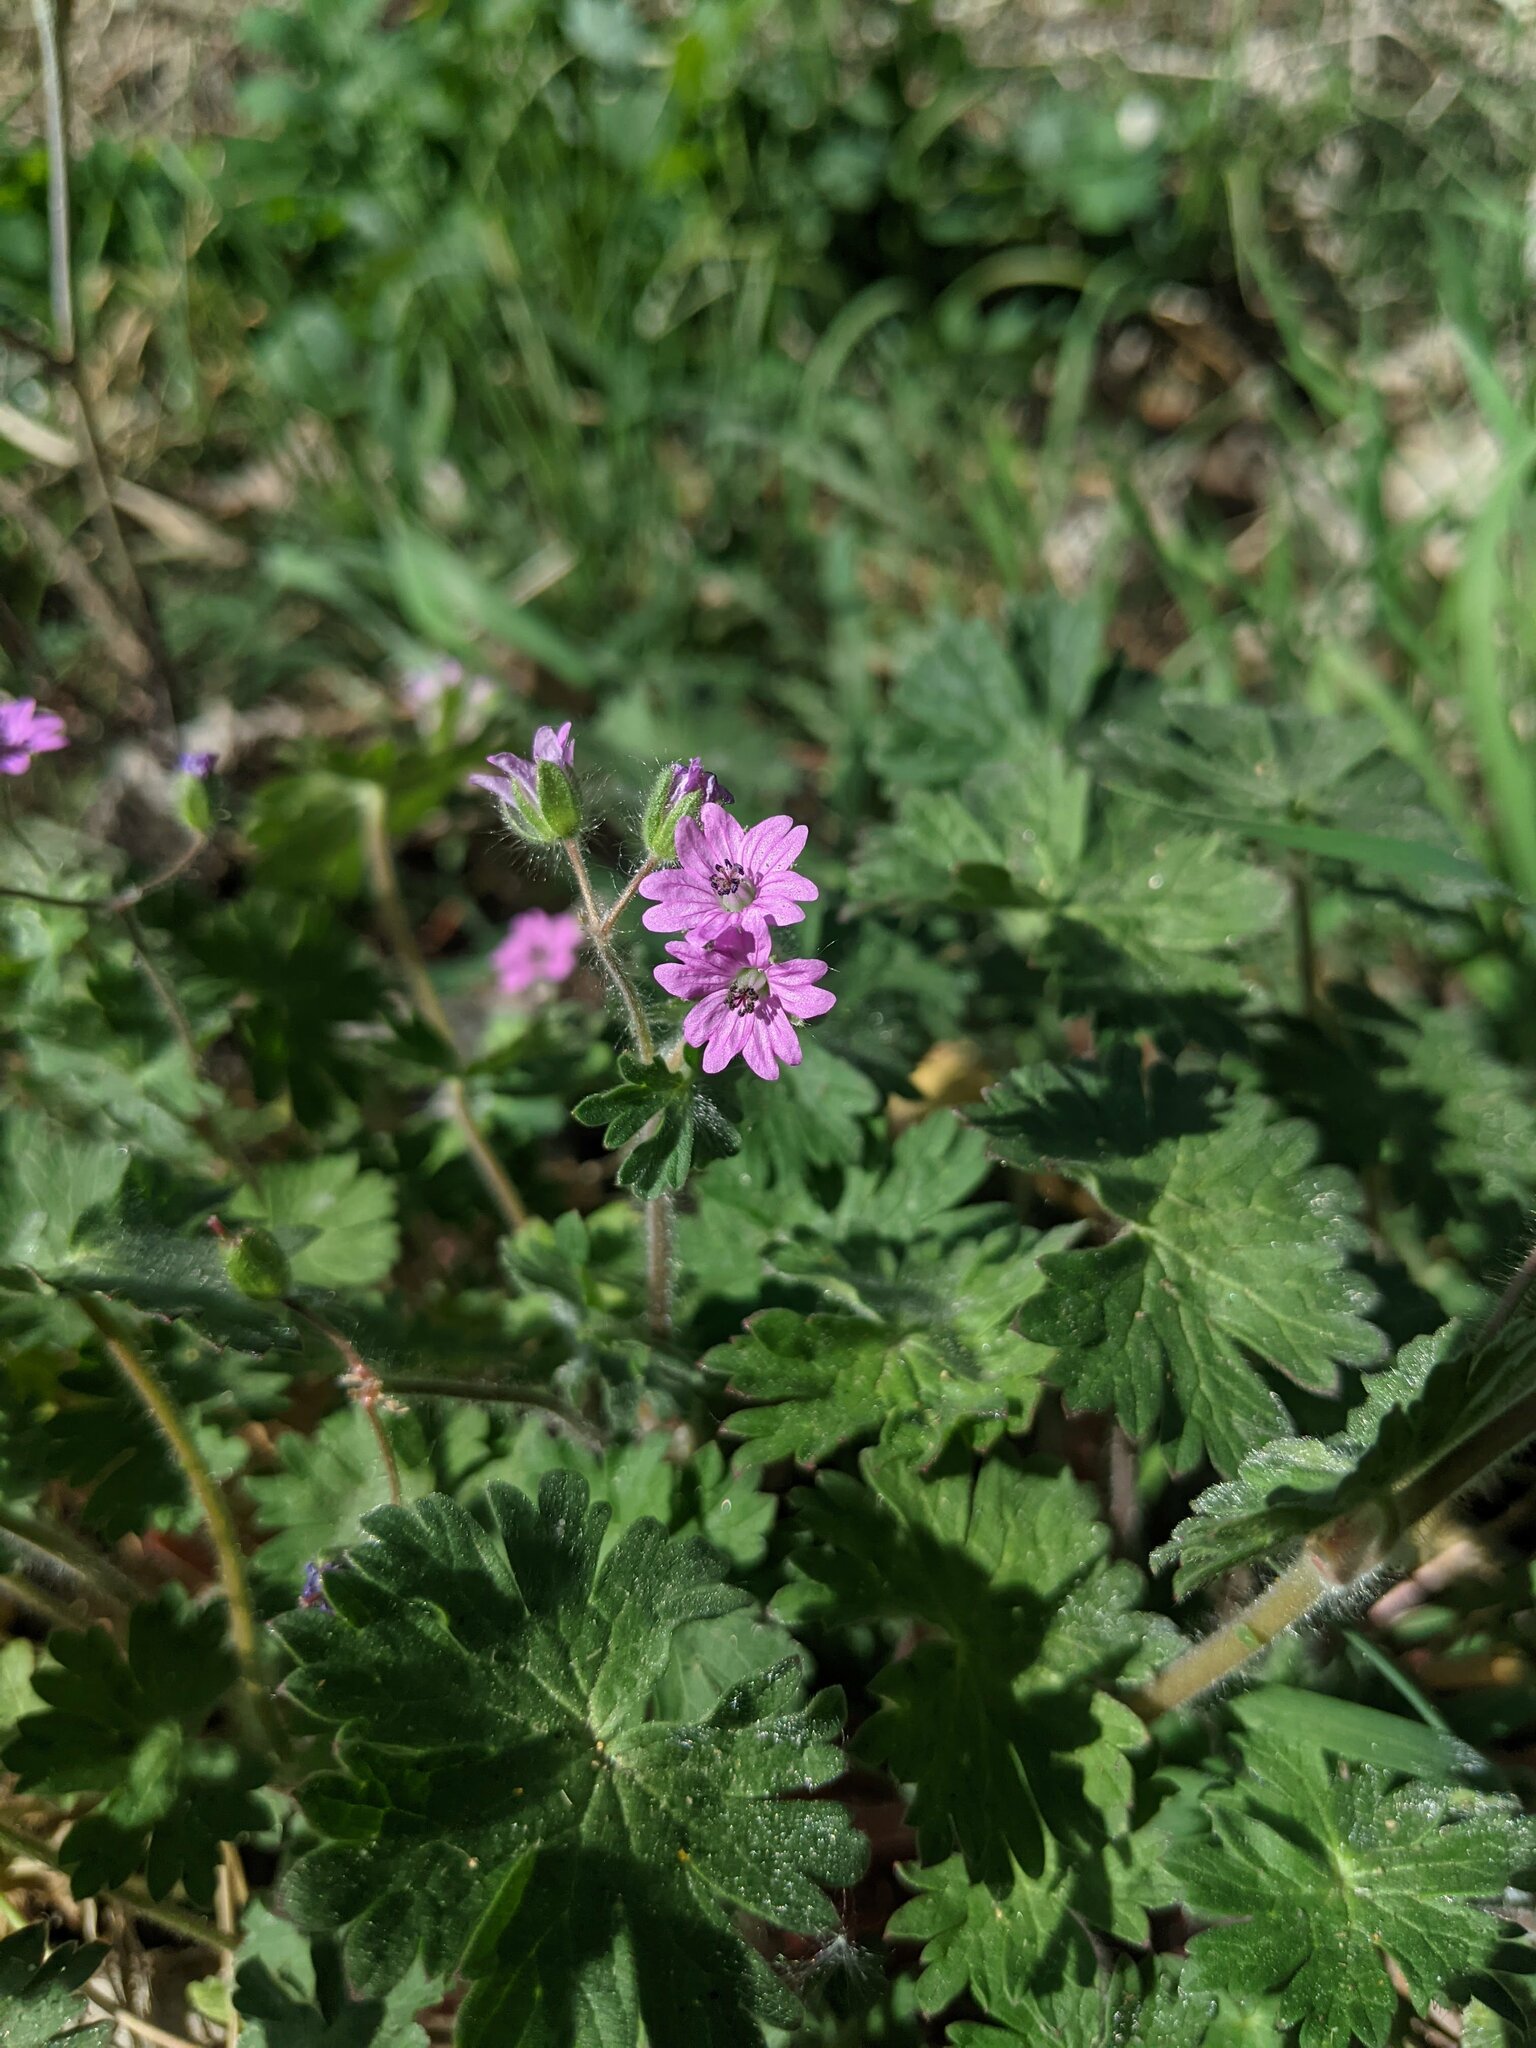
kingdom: Plantae
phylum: Tracheophyta
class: Magnoliopsida
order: Geraniales
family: Geraniaceae
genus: Geranium
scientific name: Geranium molle
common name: Dove's-foot crane's-bill
